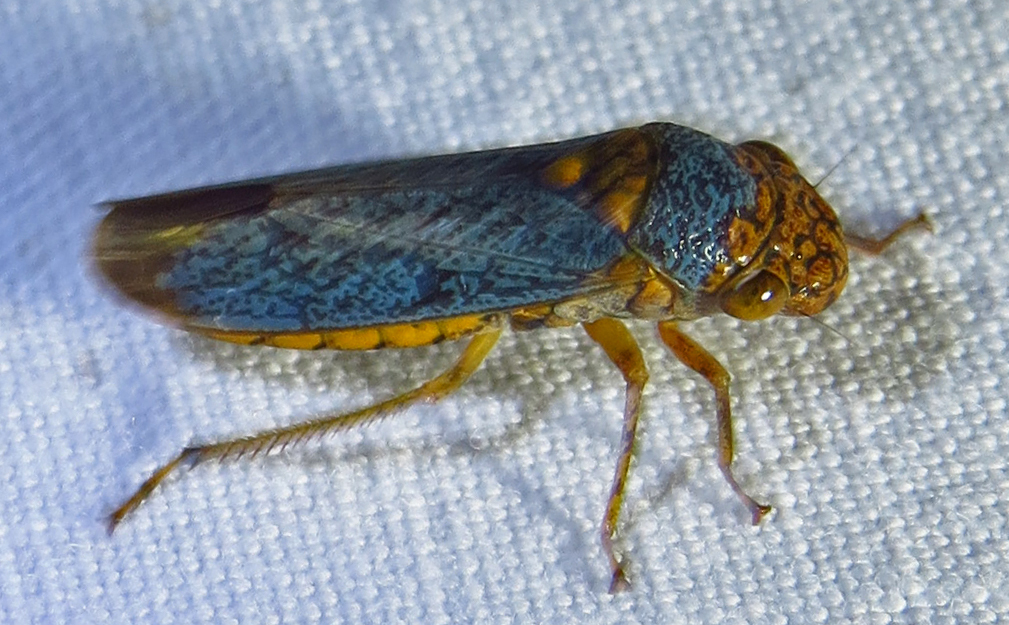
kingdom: Animalia
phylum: Arthropoda
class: Insecta
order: Hemiptera
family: Cicadellidae
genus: Oncometopia
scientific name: Oncometopia orbona
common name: Broad-headed sharpshooter
